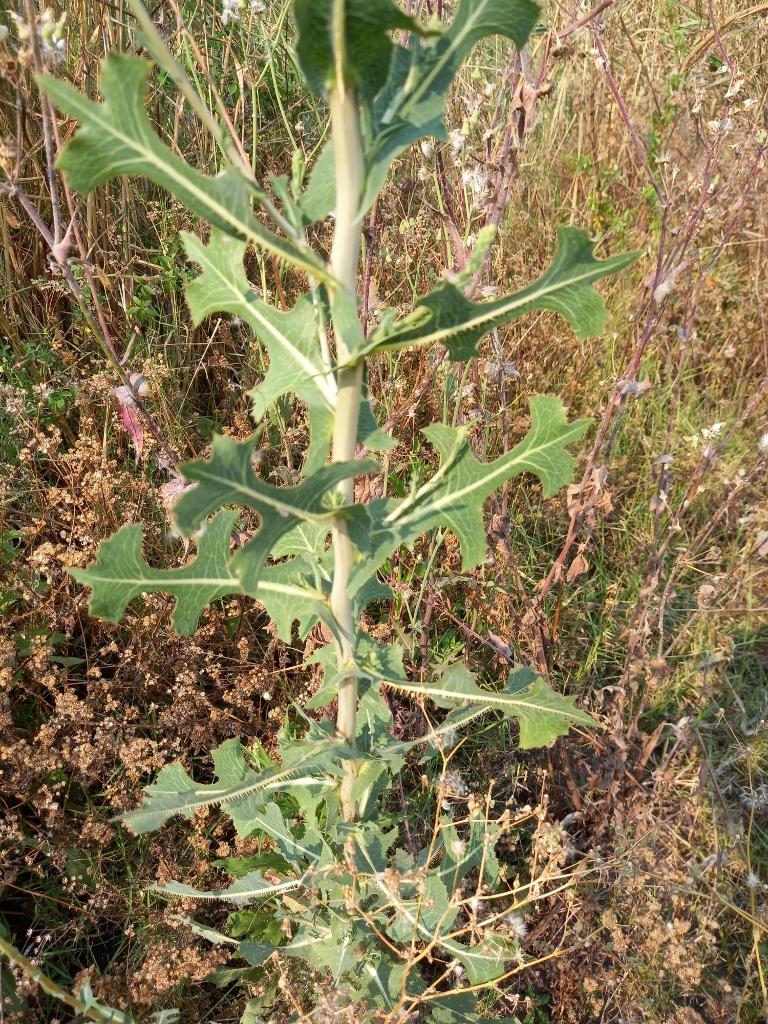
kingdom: Plantae
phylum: Tracheophyta
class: Magnoliopsida
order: Asterales
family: Asteraceae
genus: Lactuca
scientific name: Lactuca serriola
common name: Prickly lettuce
